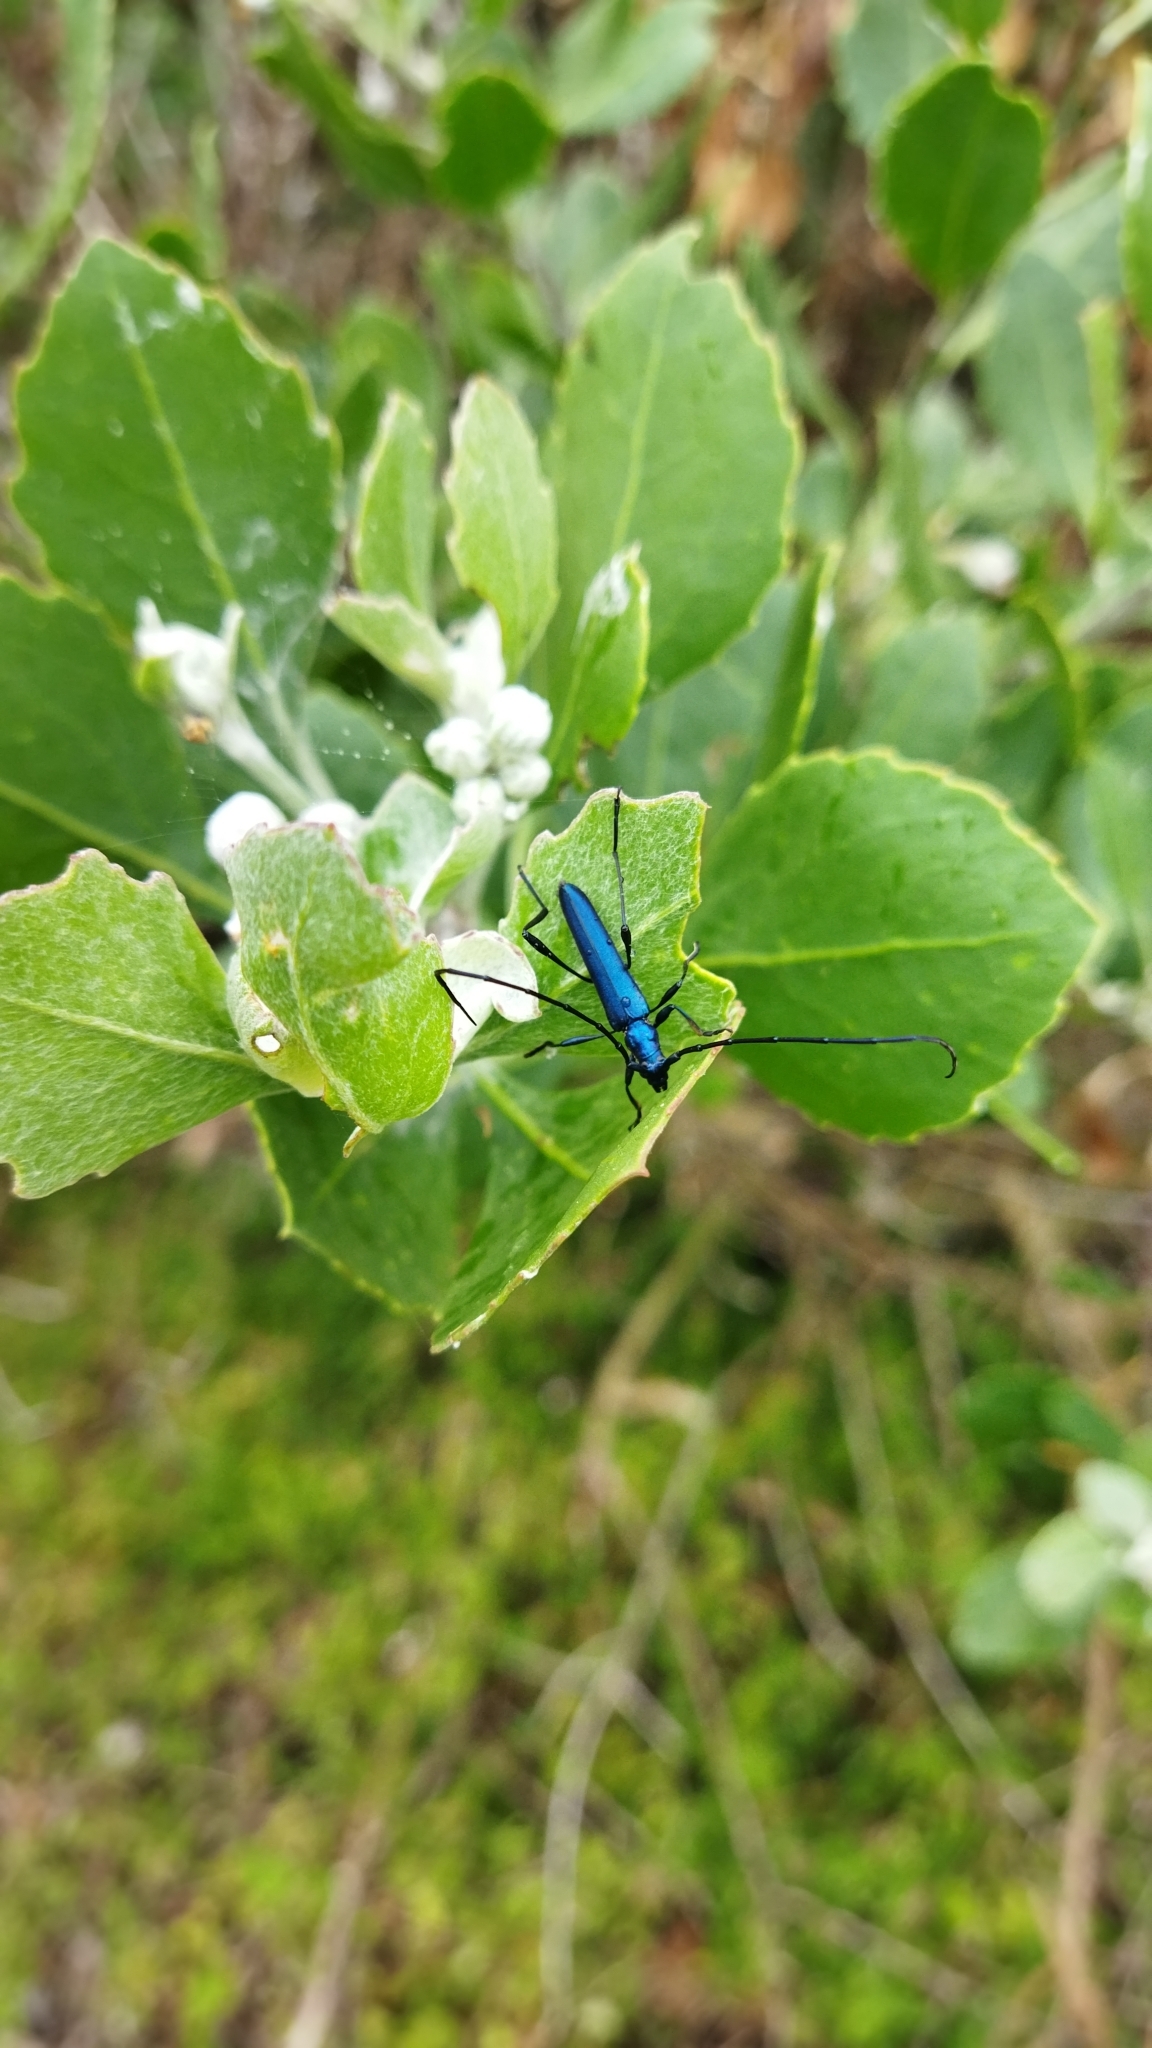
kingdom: Animalia
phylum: Arthropoda
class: Insecta
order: Coleoptera
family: Cerambycidae
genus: Promeces
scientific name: Promeces longipes
